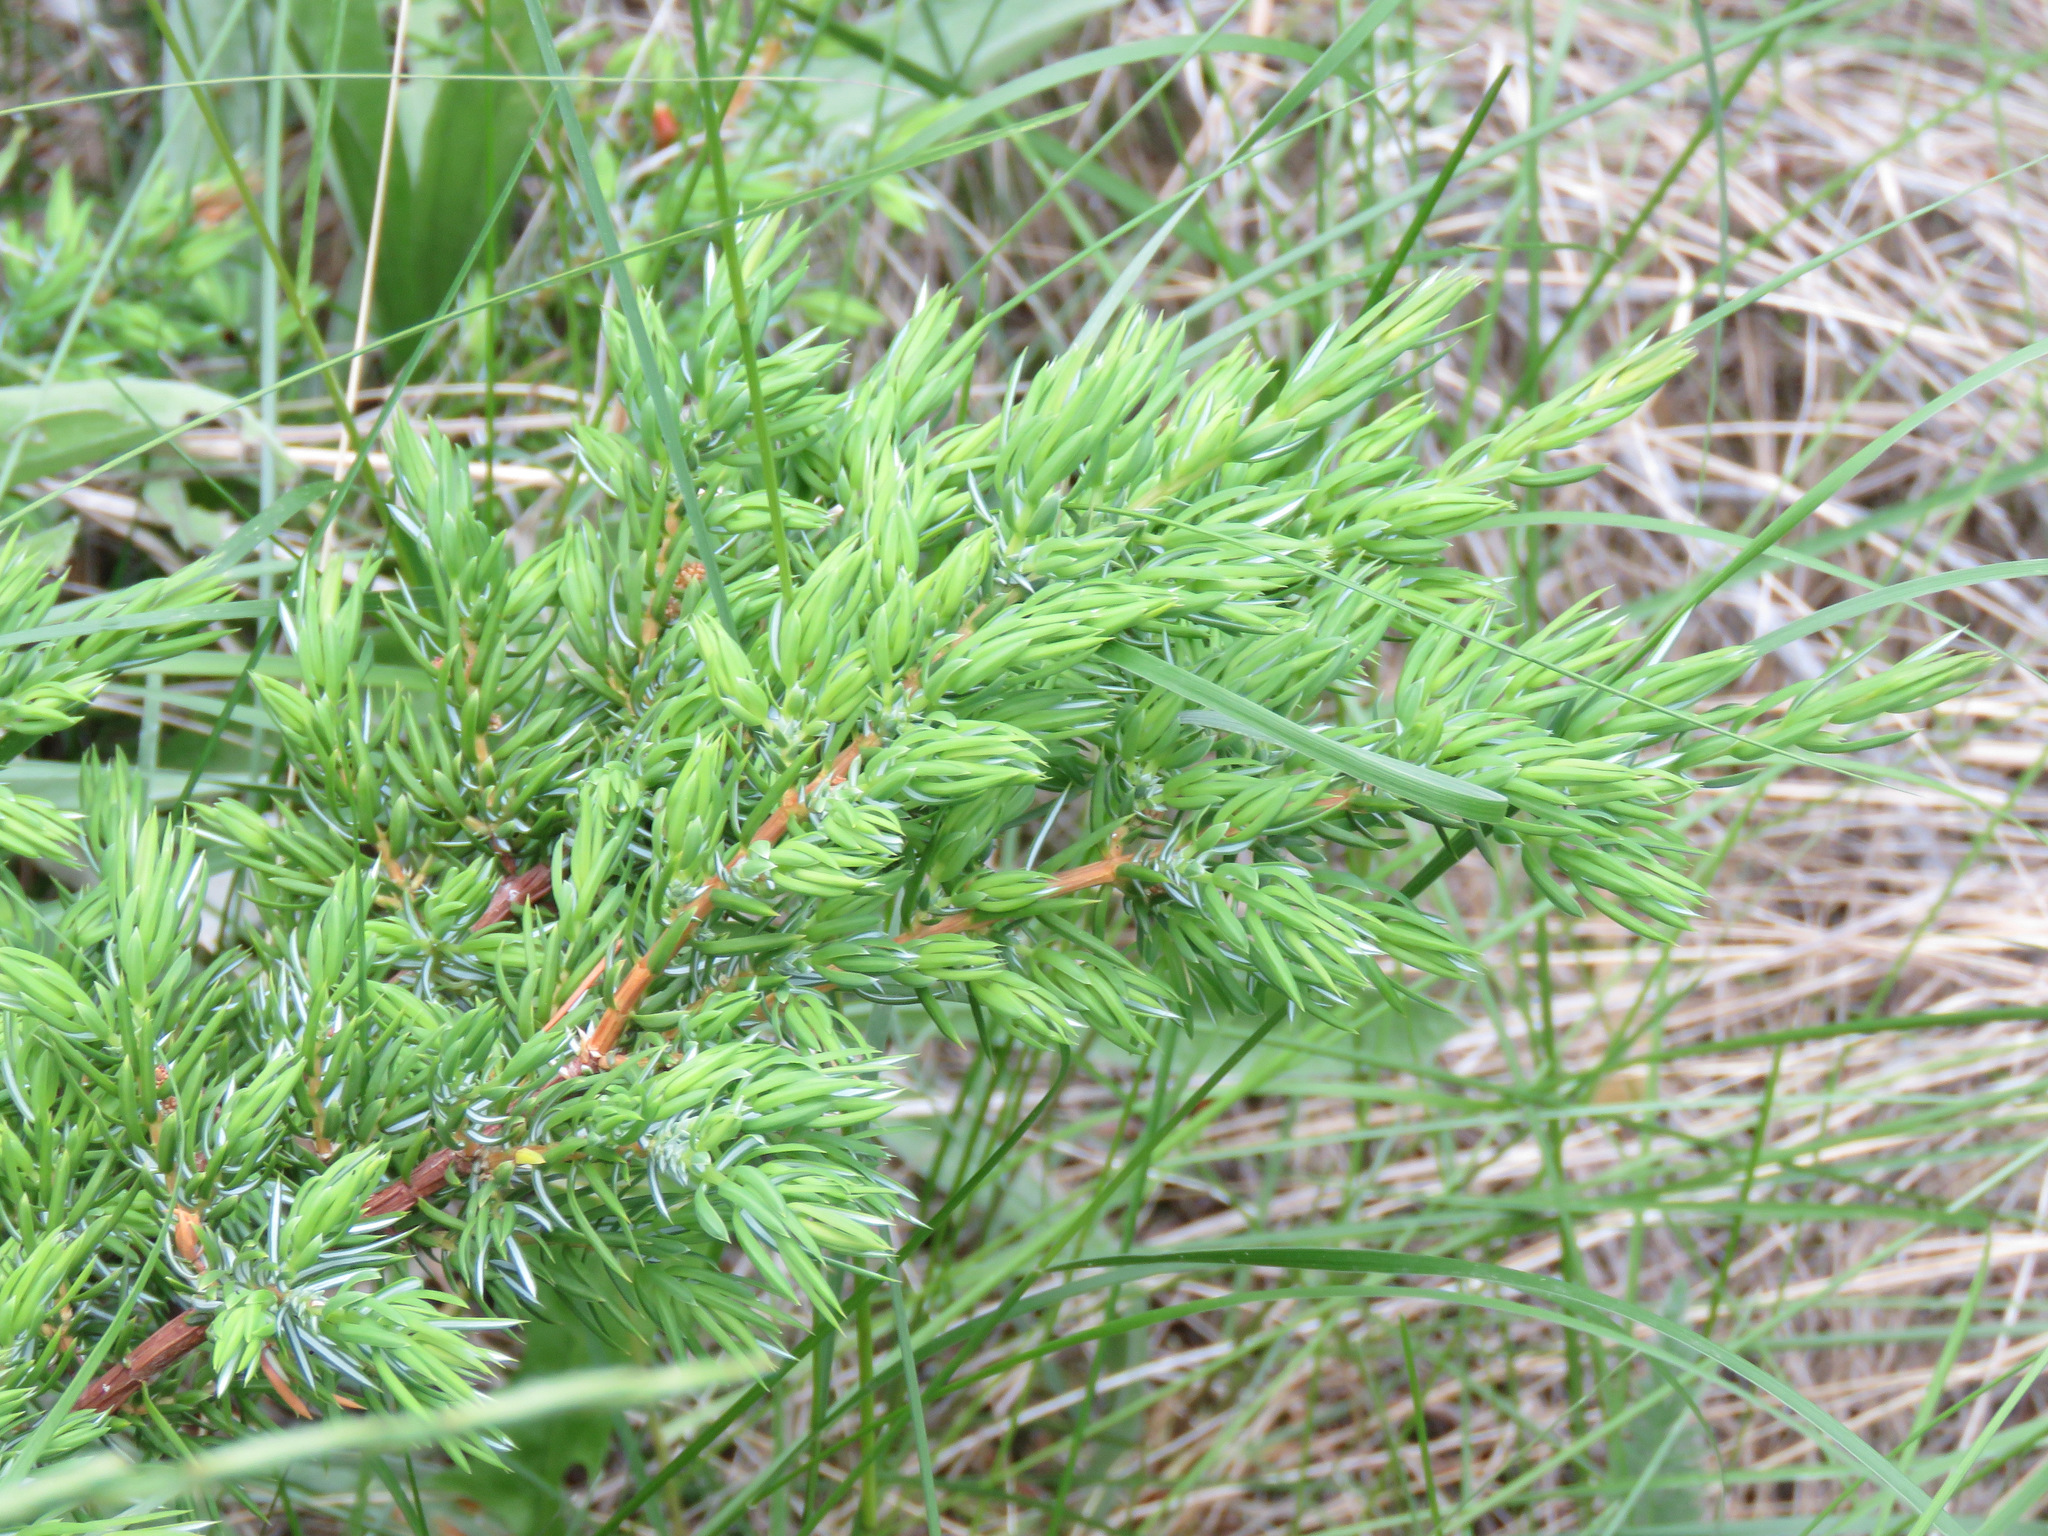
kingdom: Plantae
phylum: Tracheophyta
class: Pinopsida
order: Pinales
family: Cupressaceae
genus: Juniperus
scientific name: Juniperus communis
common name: Common juniper
